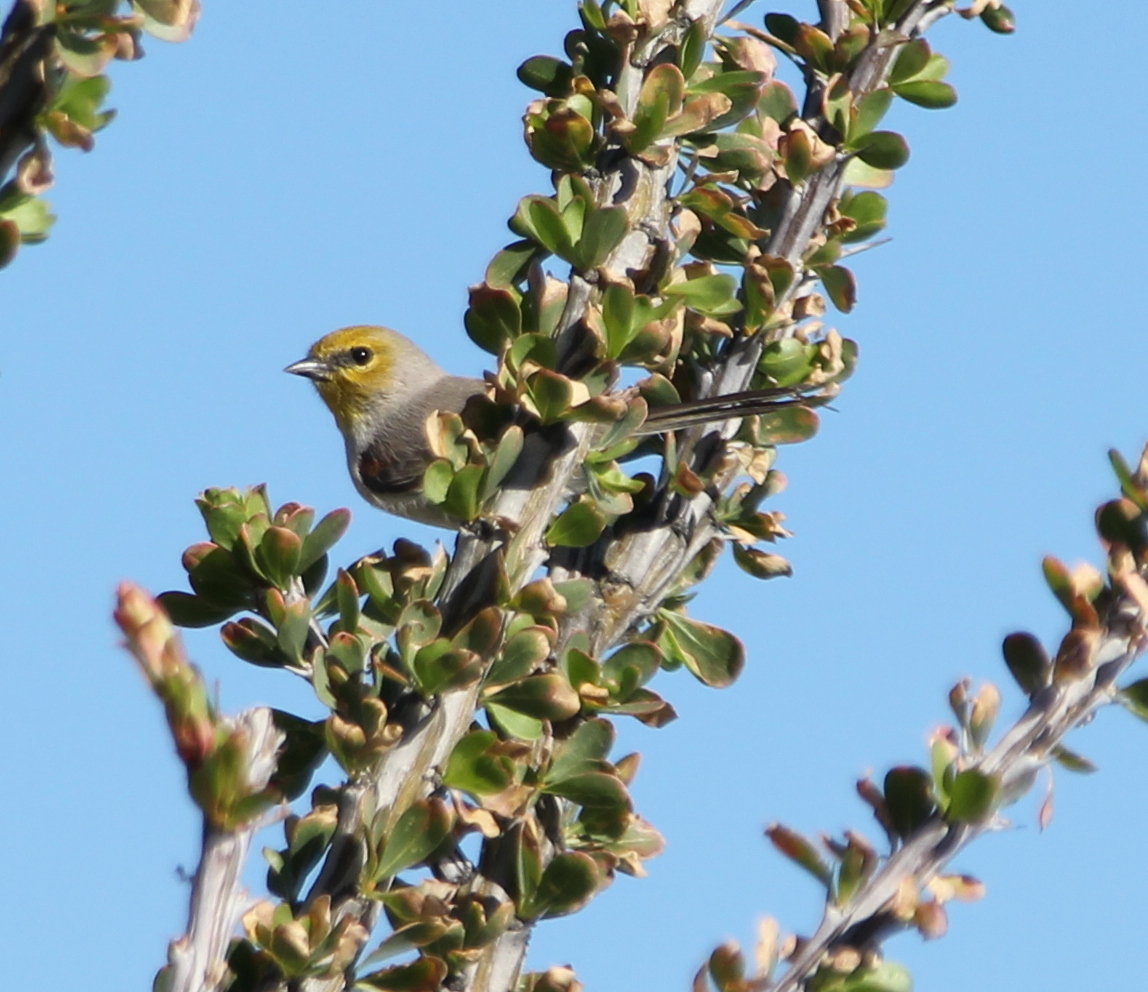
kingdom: Animalia
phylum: Chordata
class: Aves
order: Passeriformes
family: Remizidae
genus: Auriparus
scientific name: Auriparus flaviceps
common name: Verdin
